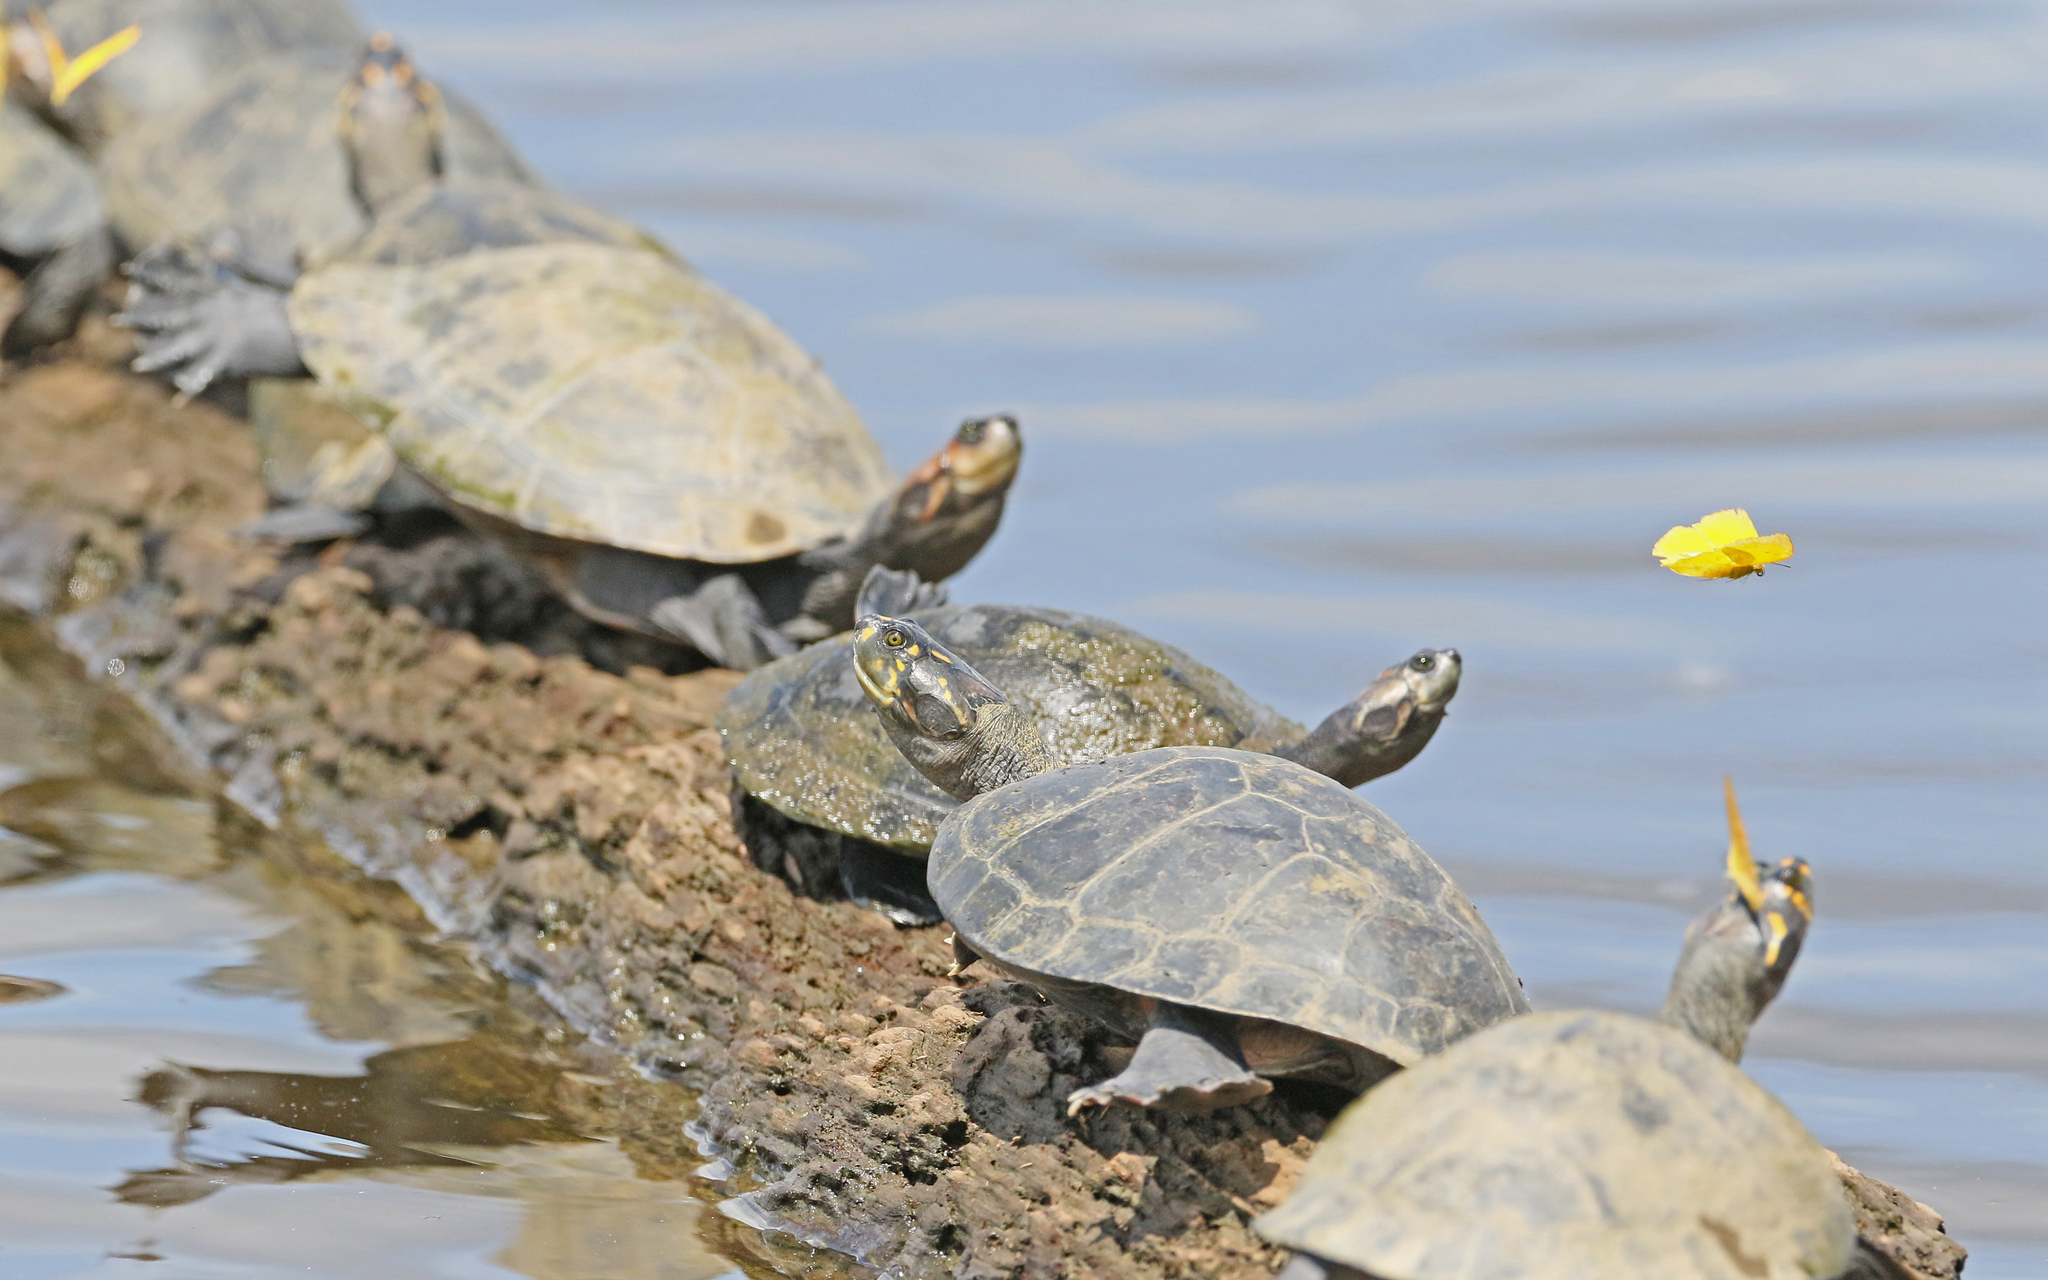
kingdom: Animalia
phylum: Chordata
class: Testudines
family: Podocnemididae
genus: Podocnemis
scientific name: Podocnemis unifilis
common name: Yellow-spotted amazon river turtle
